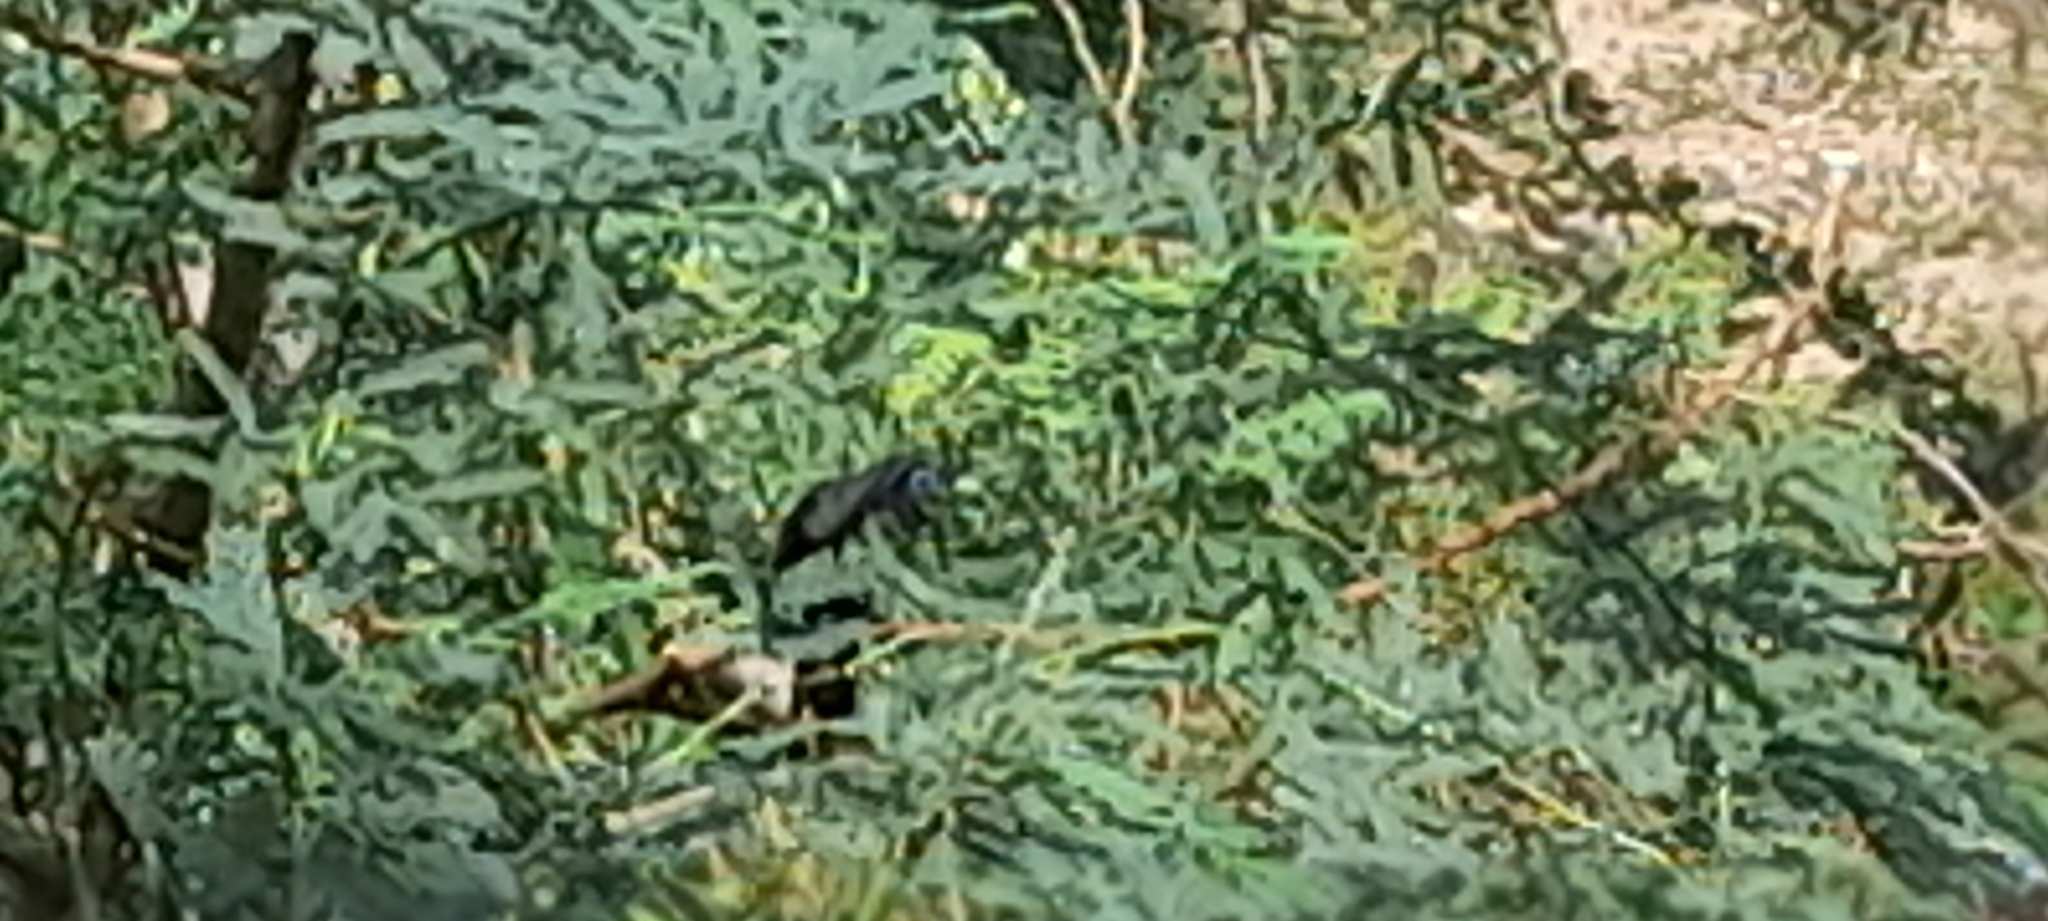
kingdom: Animalia
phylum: Chordata
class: Aves
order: Cuculiformes
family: Cuculidae
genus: Rhopodytes
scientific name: Rhopodytes viridirostris
